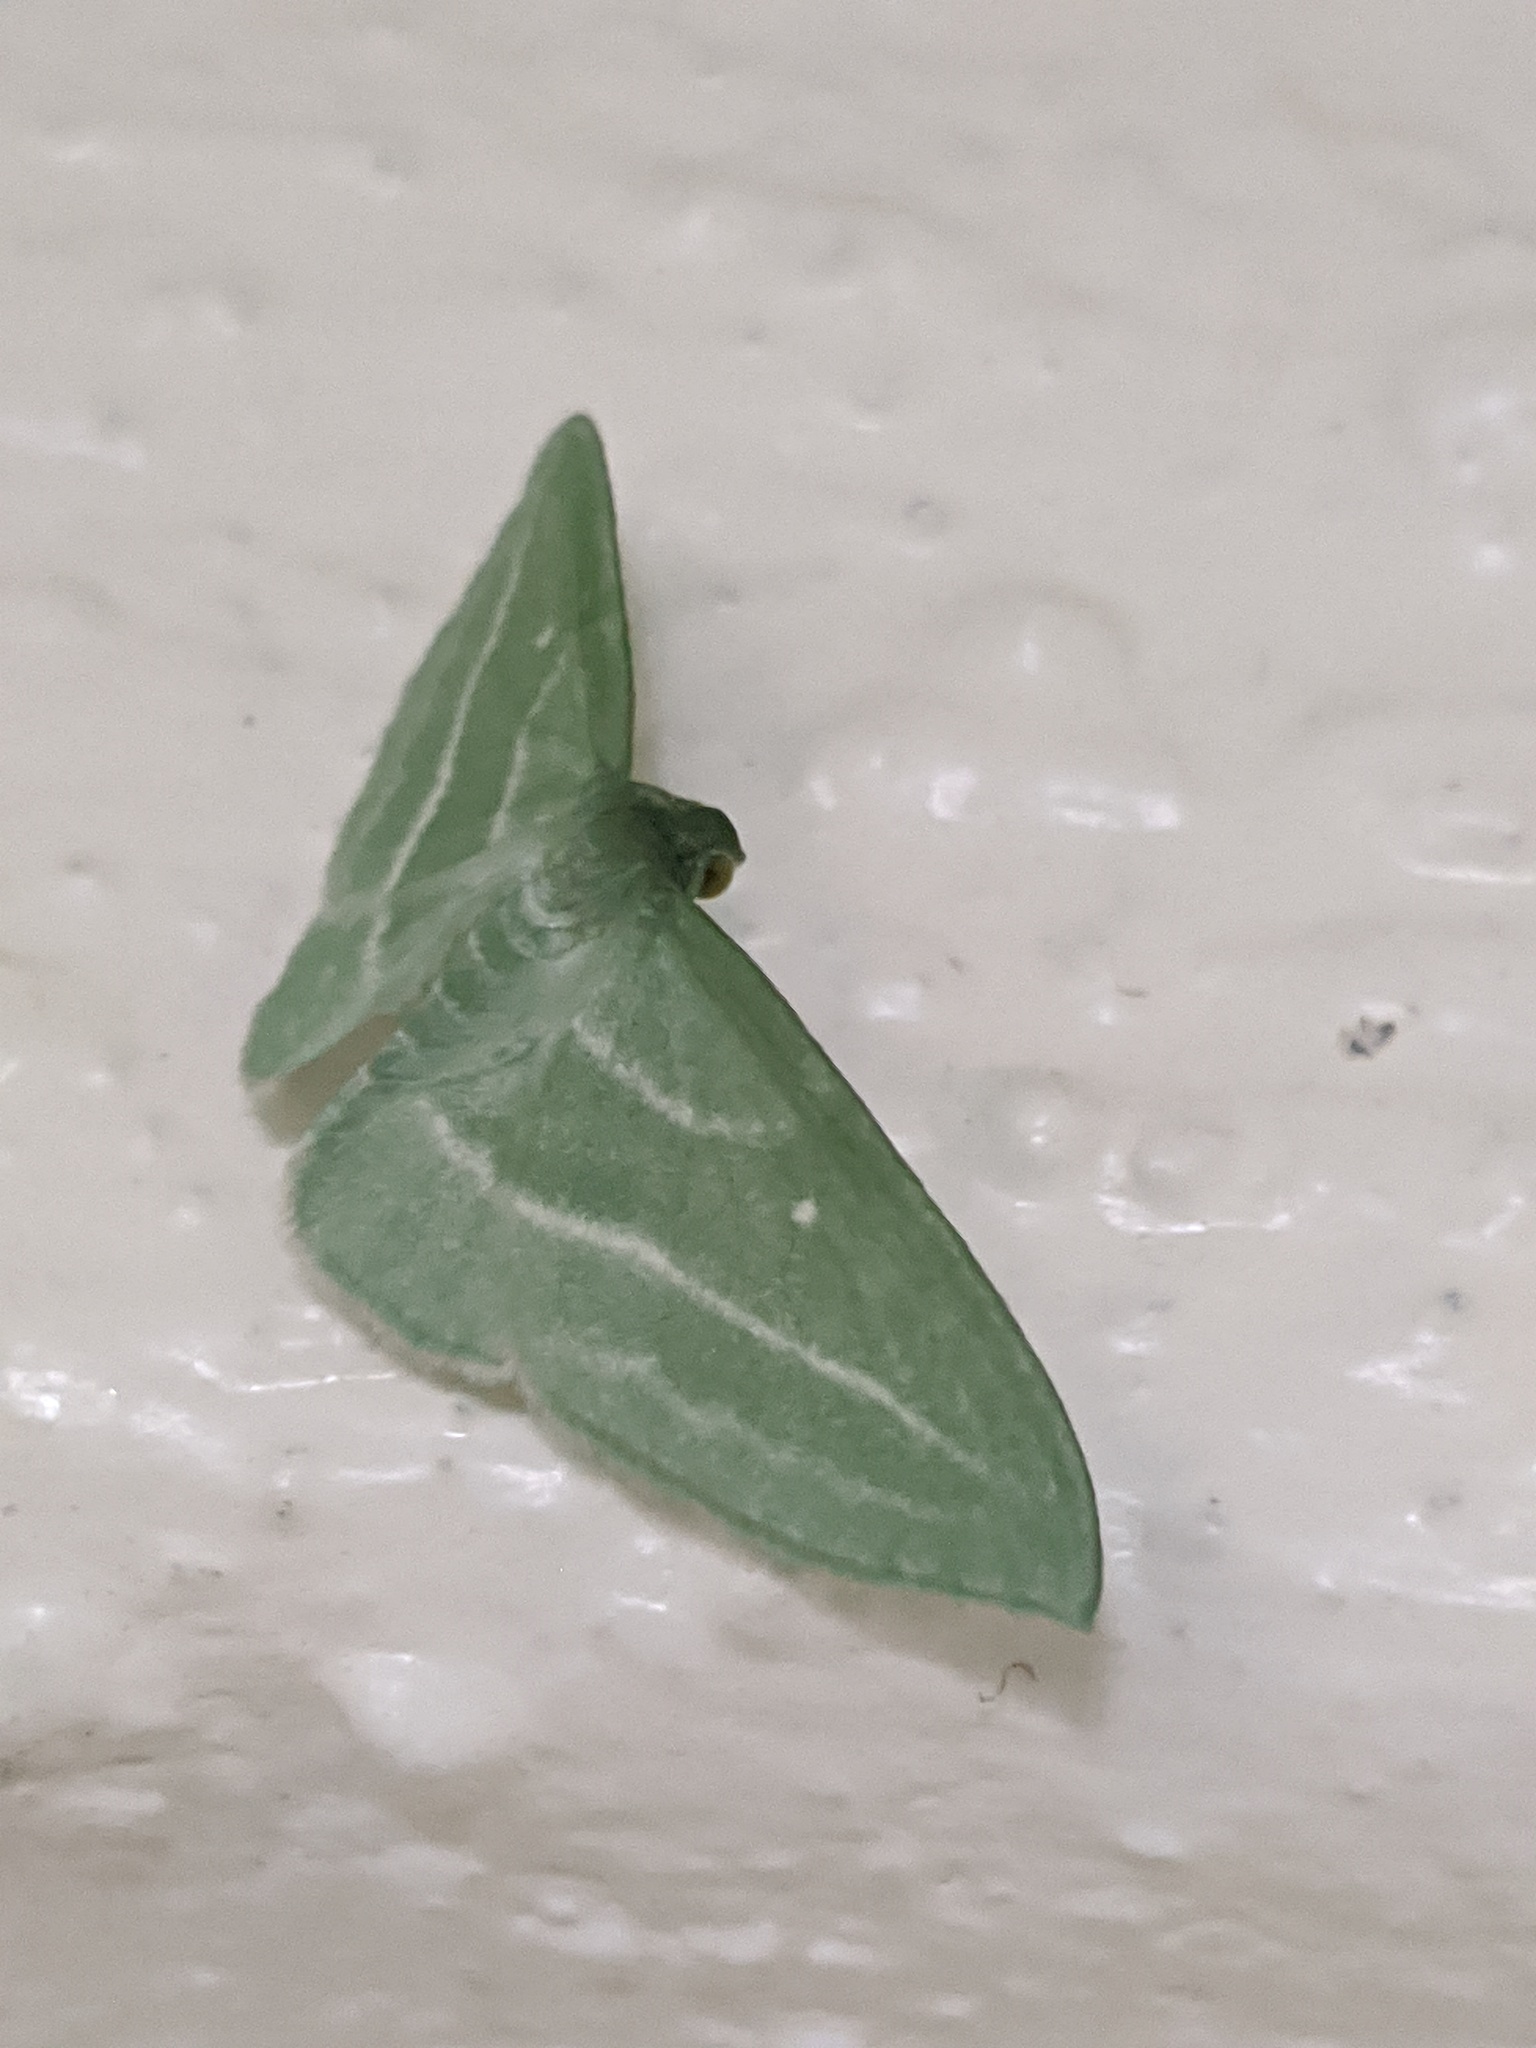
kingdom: Animalia
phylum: Arthropoda
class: Insecta
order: Lepidoptera
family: Geometridae
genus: Dyspteris
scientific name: Dyspteris abortivaria
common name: Bad-wing
